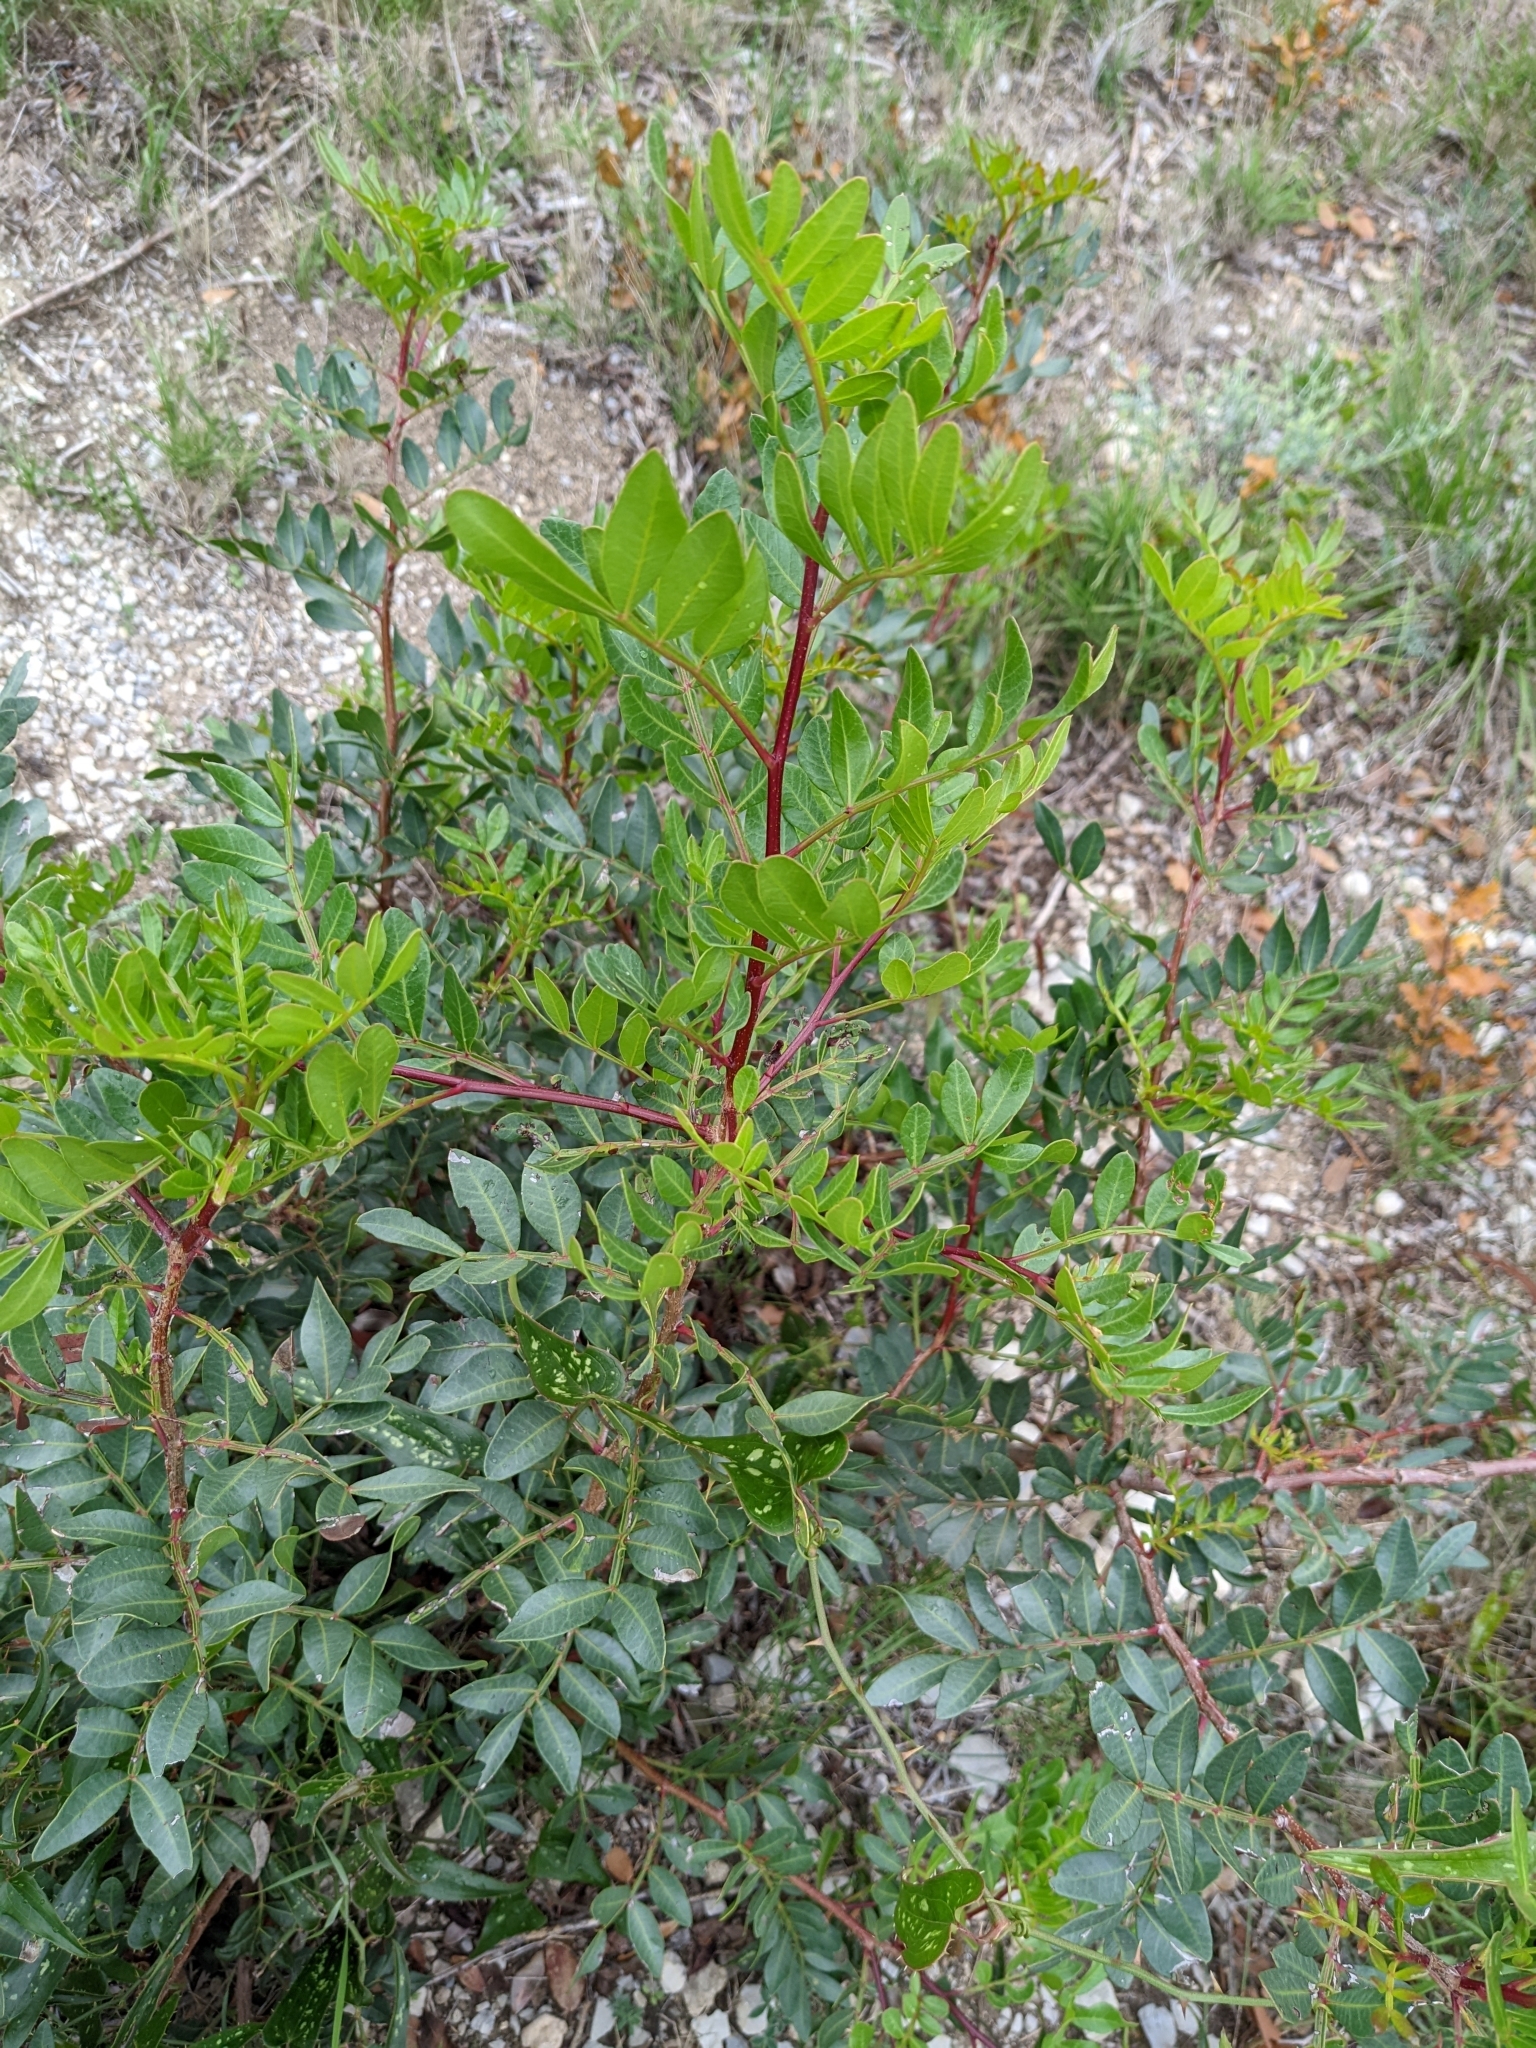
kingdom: Plantae
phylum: Tracheophyta
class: Magnoliopsida
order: Sapindales
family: Anacardiaceae
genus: Pistacia
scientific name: Pistacia lentiscus
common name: Lentisk
